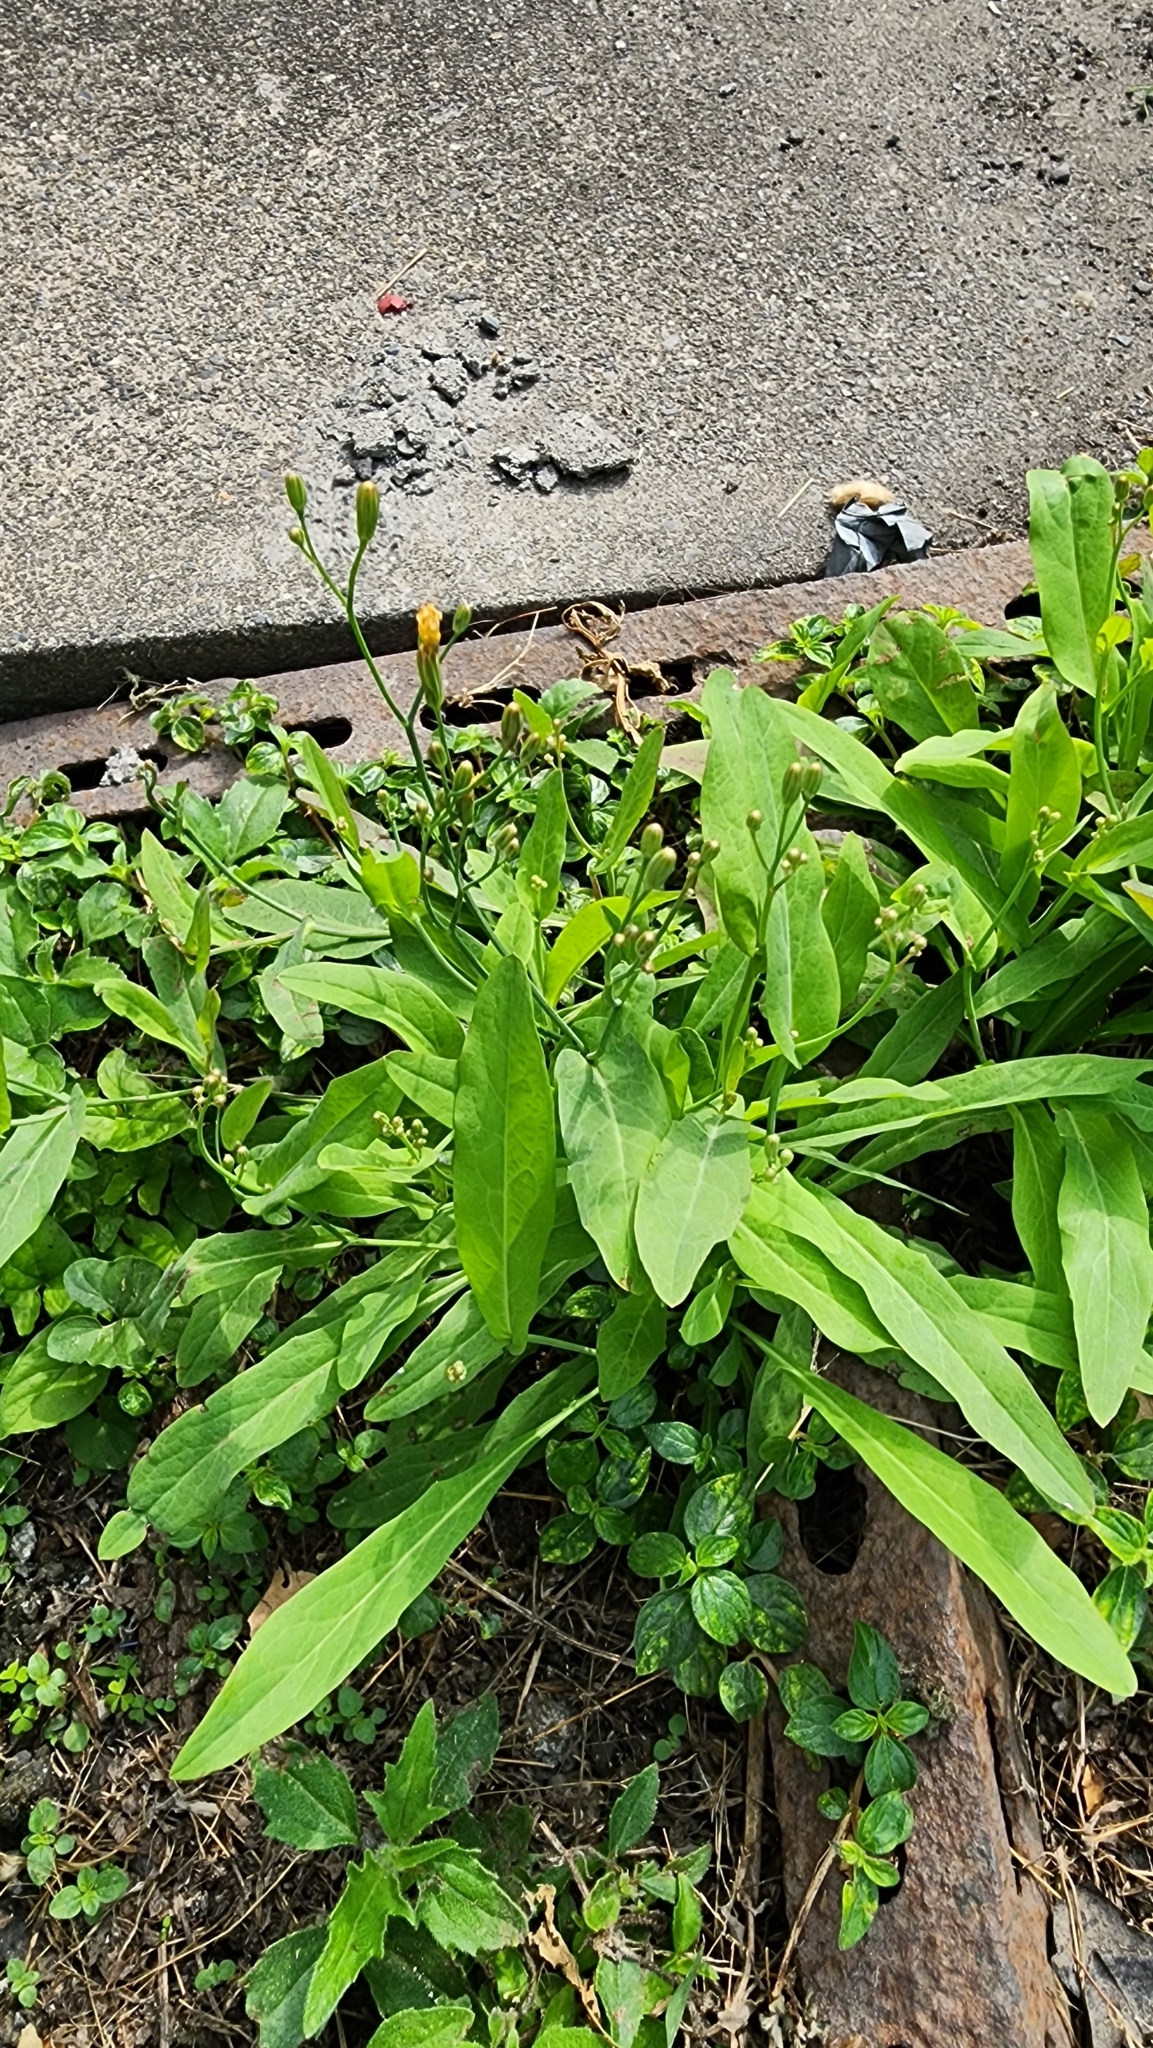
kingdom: Plantae
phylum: Tracheophyta
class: Magnoliopsida
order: Asterales
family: Asteraceae
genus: Ixeris
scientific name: Ixeris chinensis
